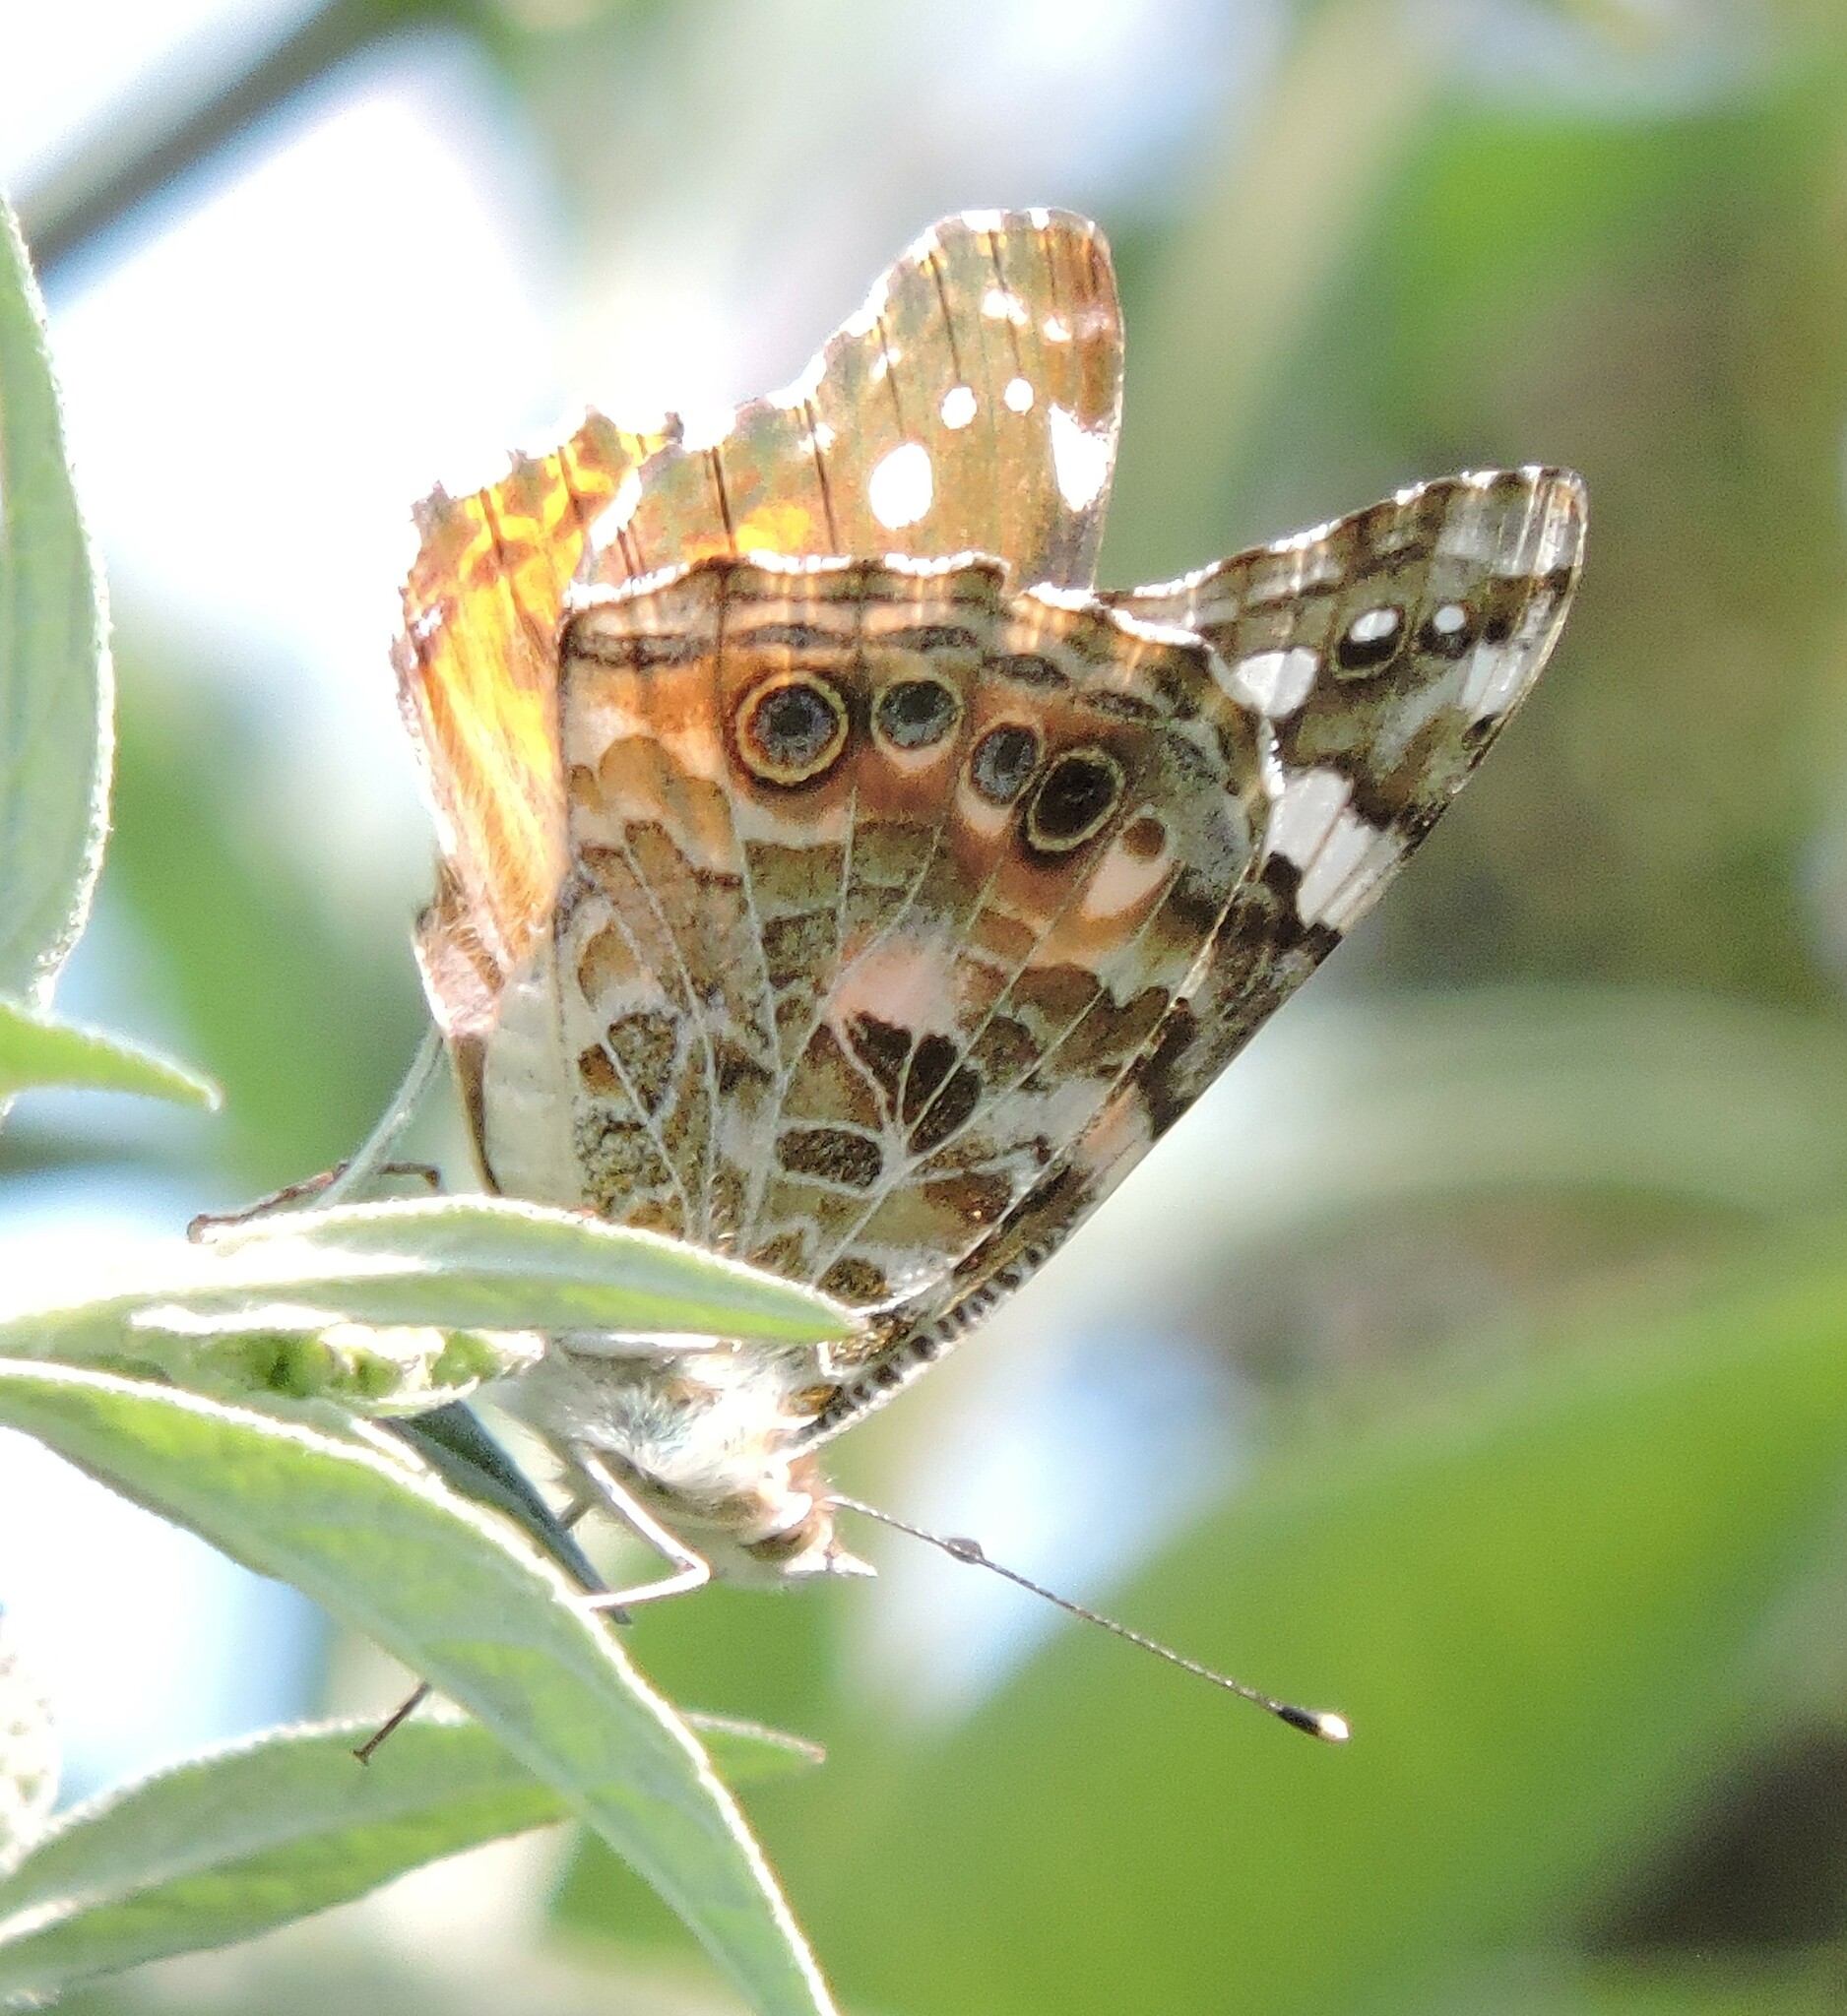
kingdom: Animalia
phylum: Arthropoda
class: Insecta
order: Lepidoptera
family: Nymphalidae
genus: Vanessa
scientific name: Vanessa cardui
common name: Painted lady
